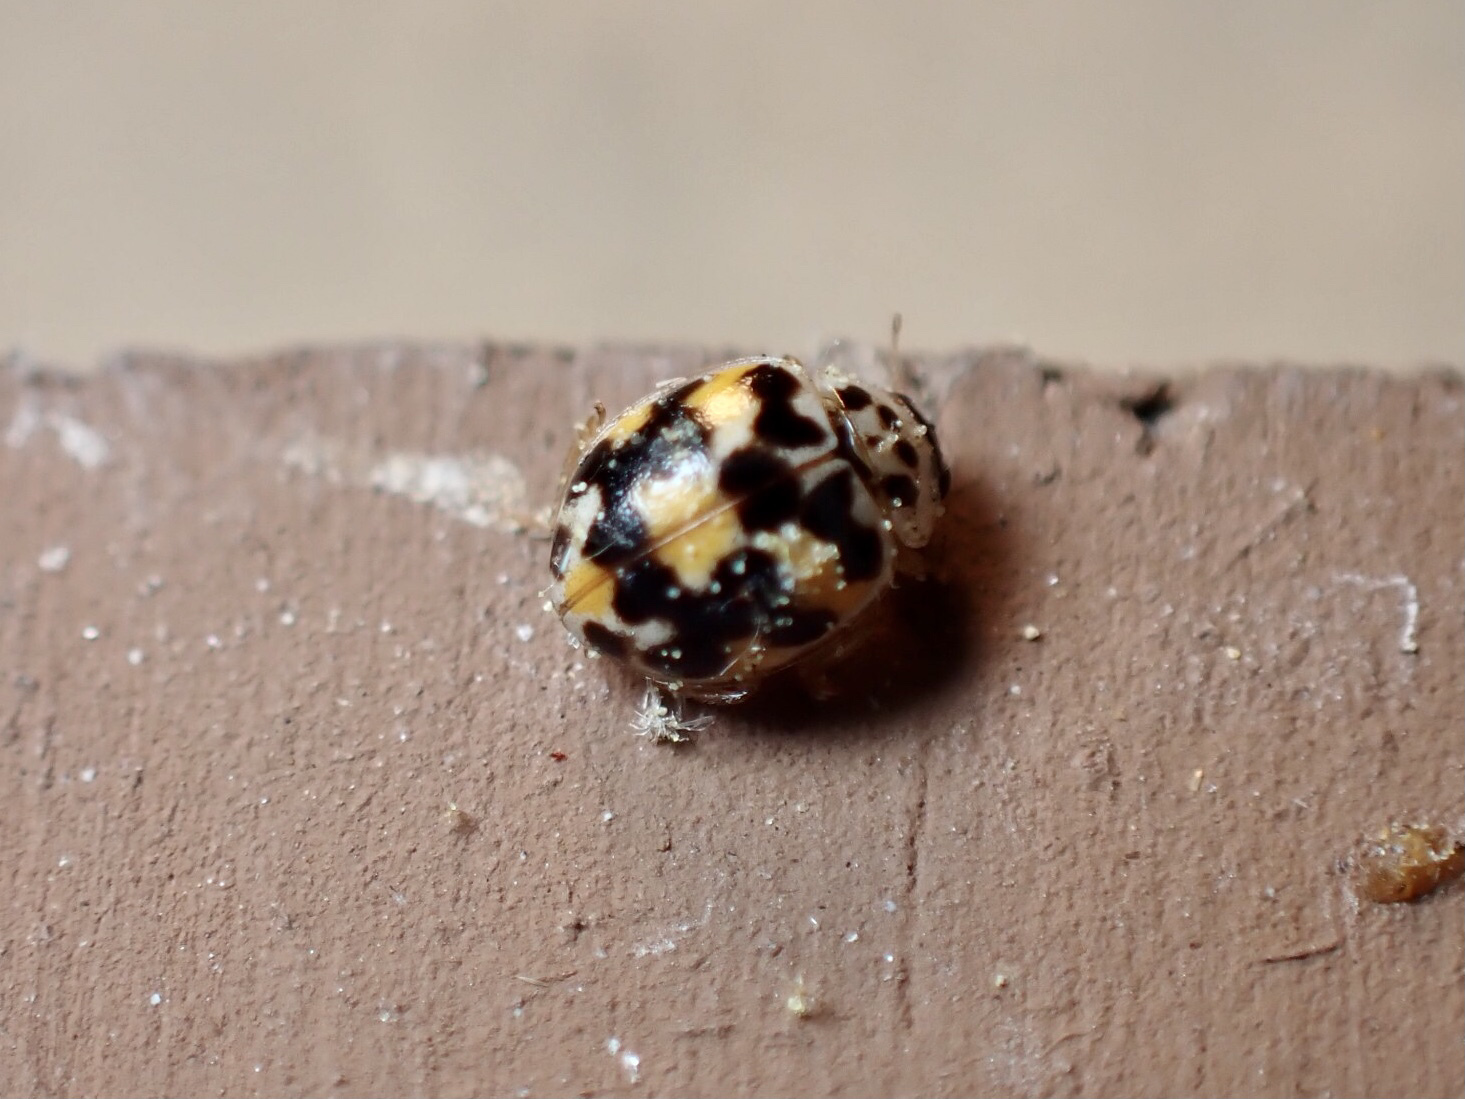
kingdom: Animalia
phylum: Arthropoda
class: Insecta
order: Coleoptera
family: Coccinellidae
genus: Psyllobora
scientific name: Psyllobora vigintimaculata
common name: Ladybird beetle
